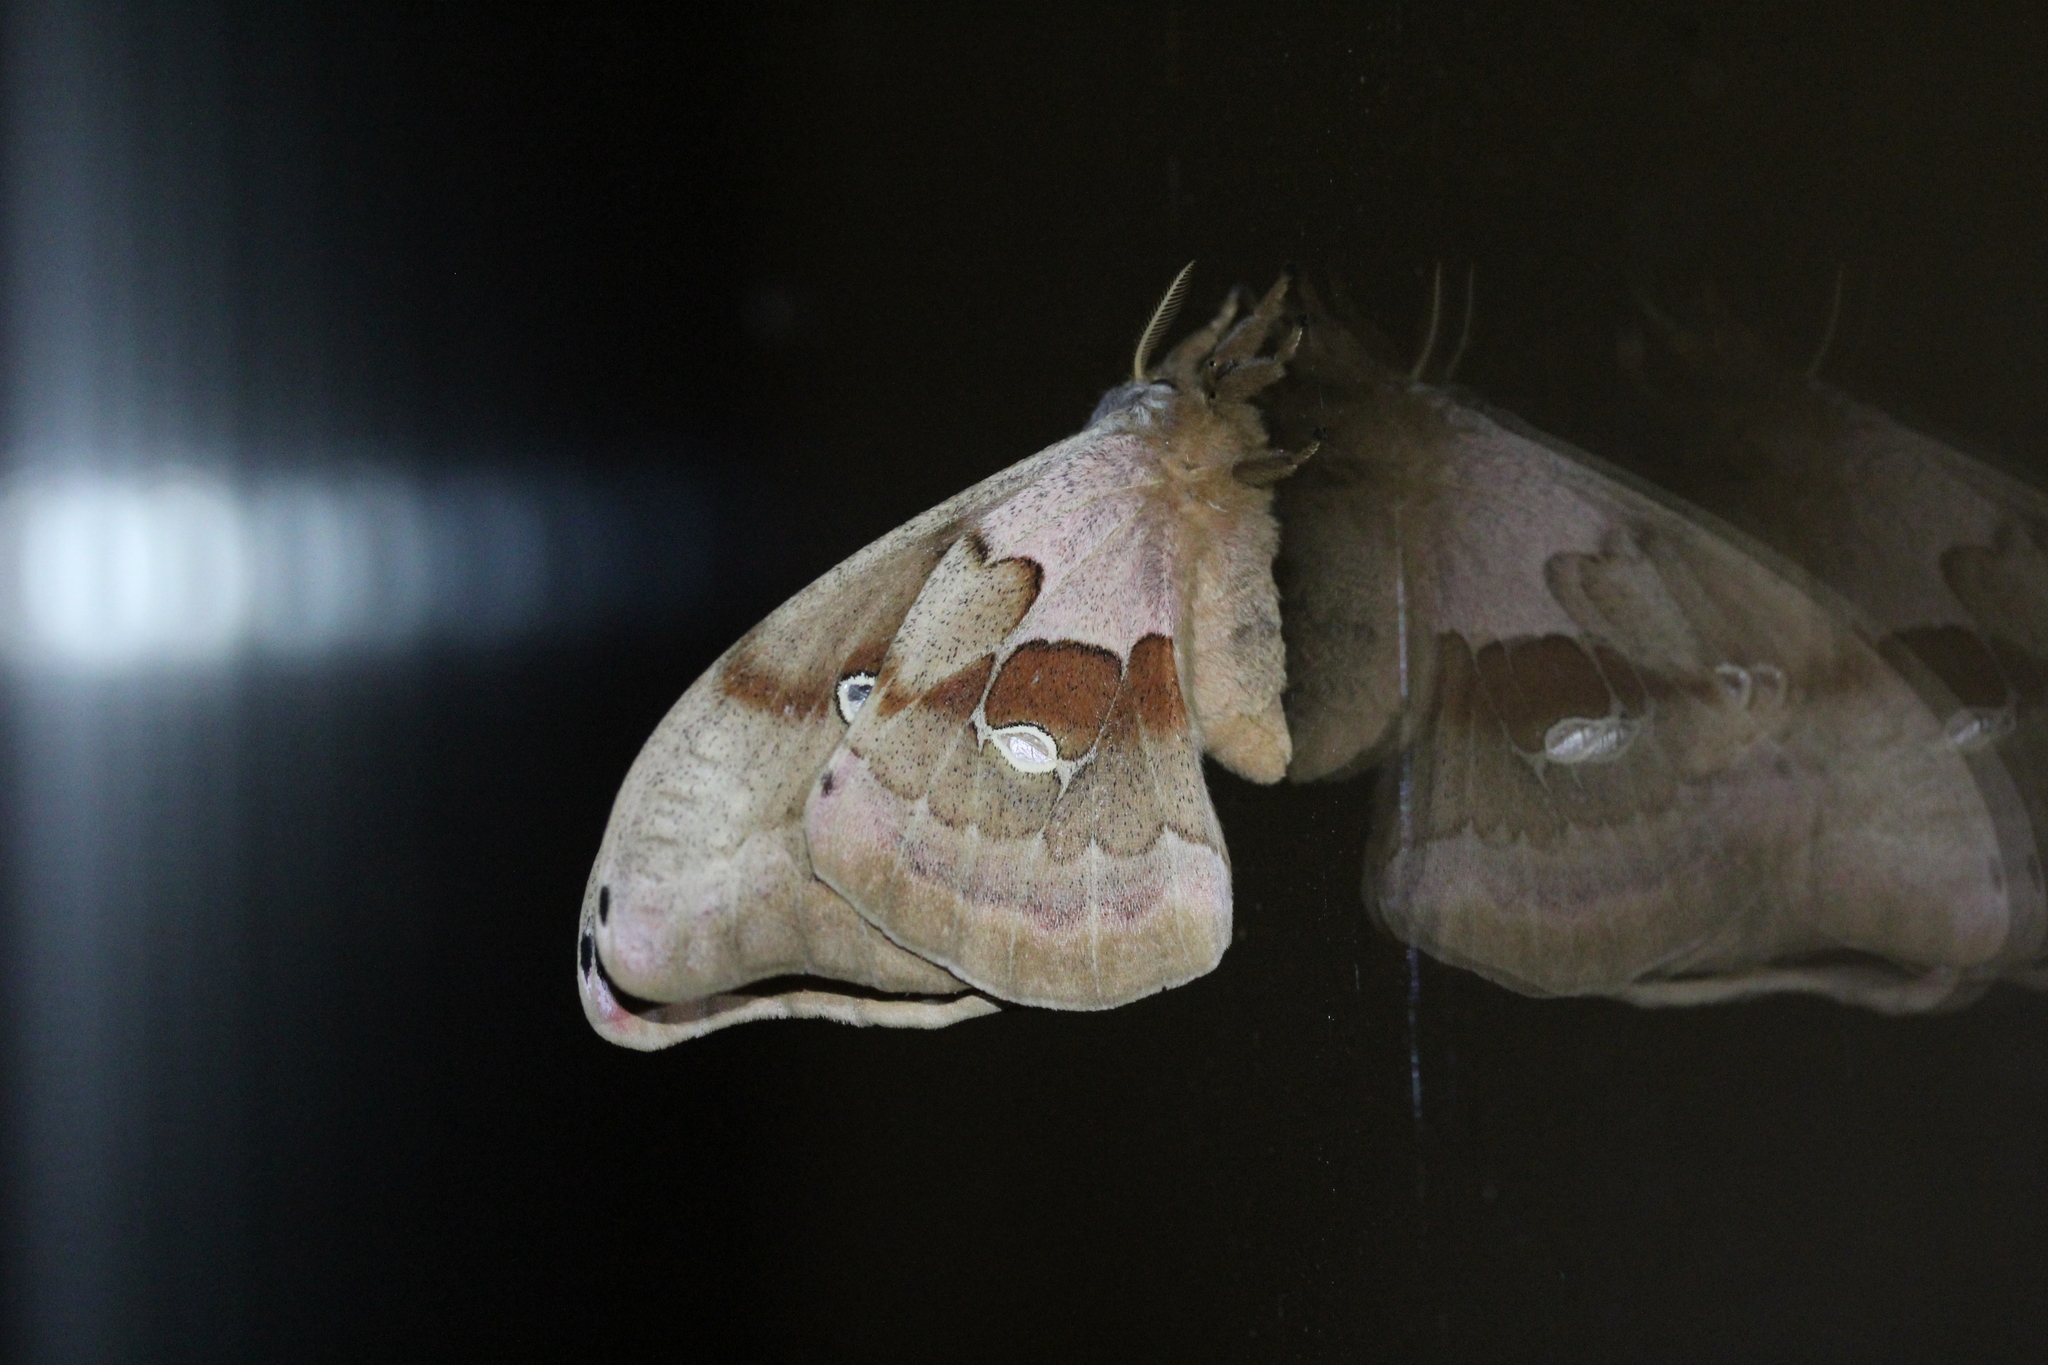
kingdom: Animalia
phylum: Arthropoda
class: Insecta
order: Lepidoptera
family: Saturniidae
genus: Antheraea
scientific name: Antheraea polyphemus
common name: Polyphemus moth
